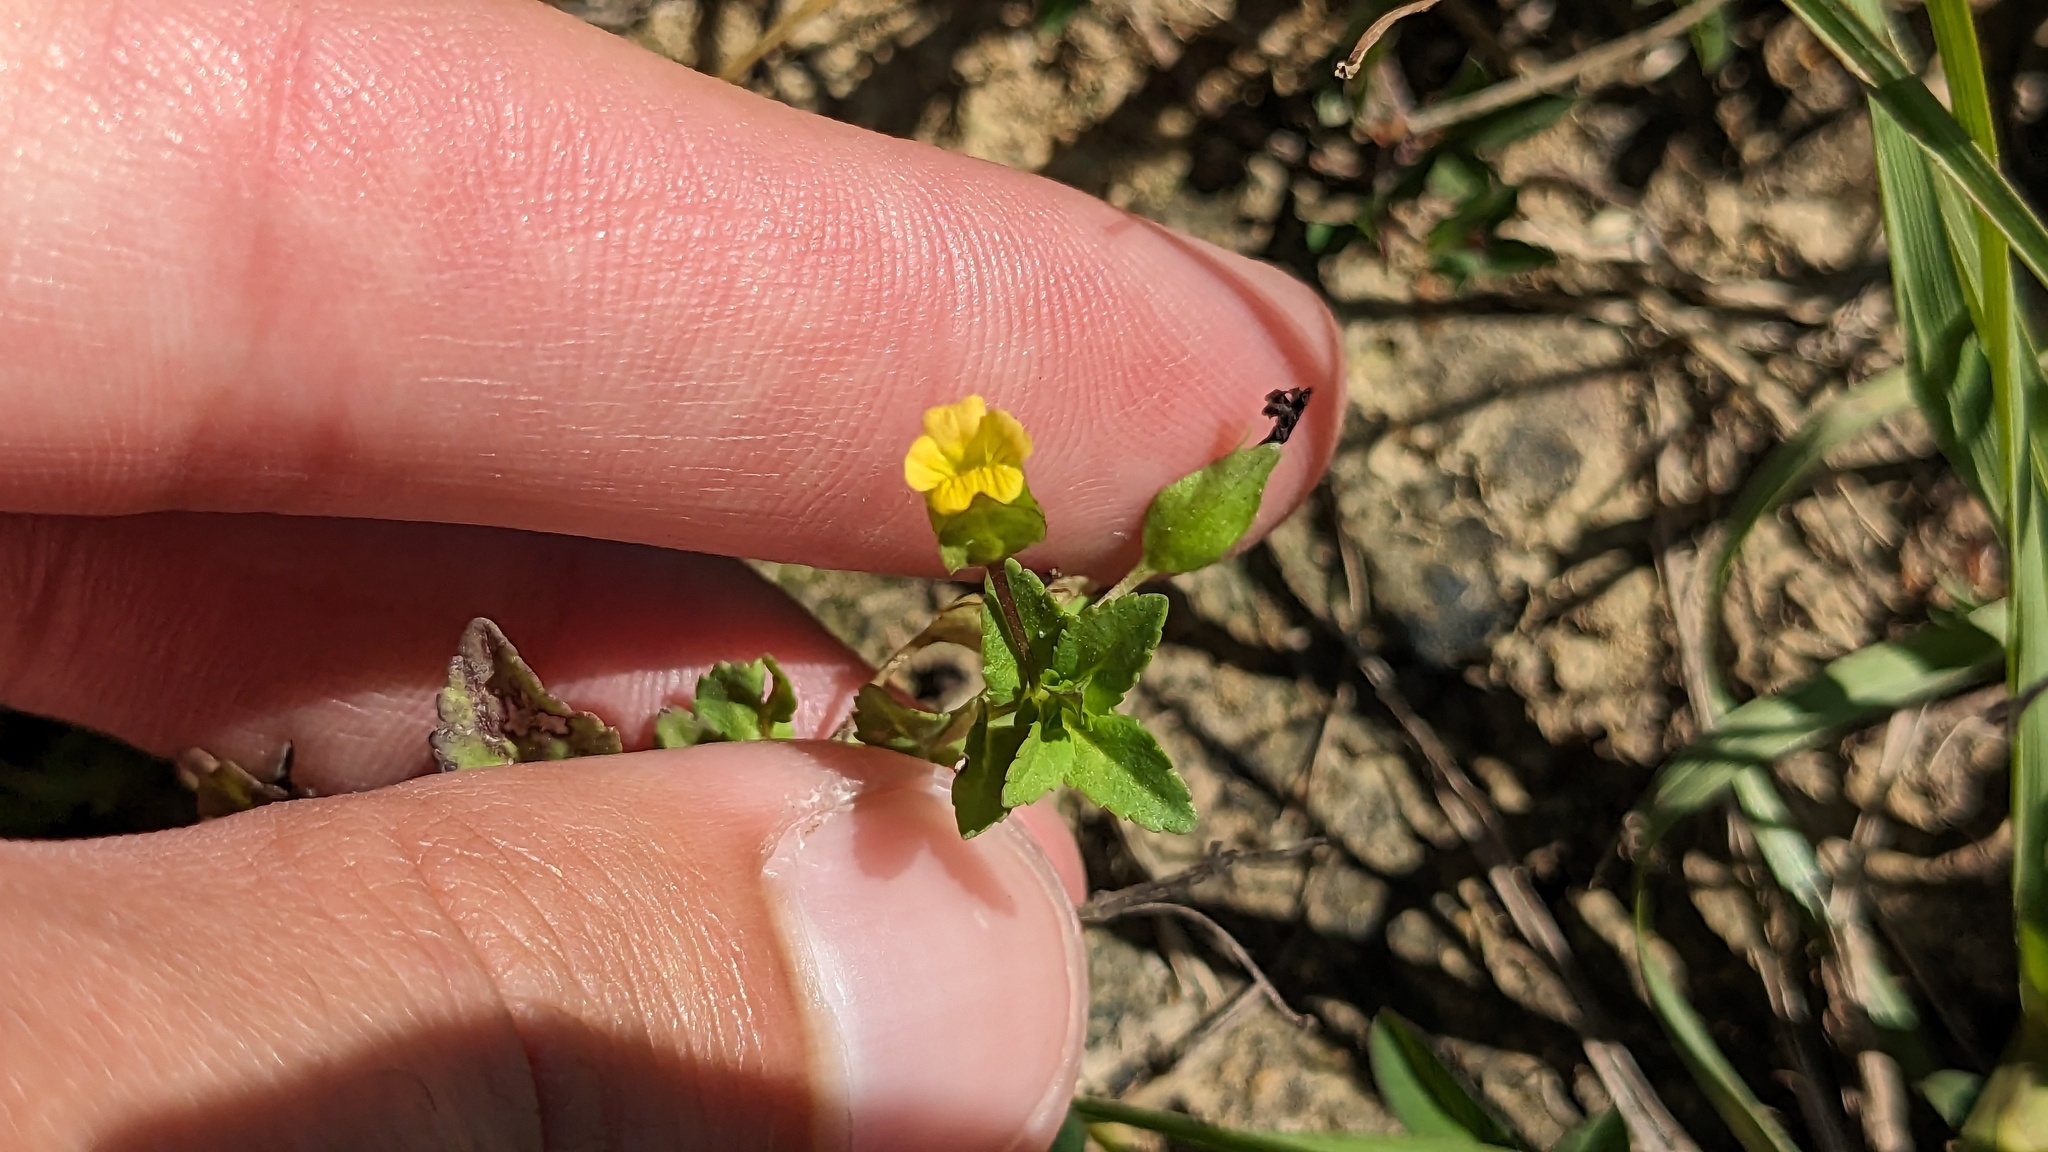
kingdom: Plantae
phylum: Tracheophyta
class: Magnoliopsida
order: Lamiales
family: Plantaginaceae
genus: Mecardonia
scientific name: Mecardonia procumbens
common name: Baby jump-up
